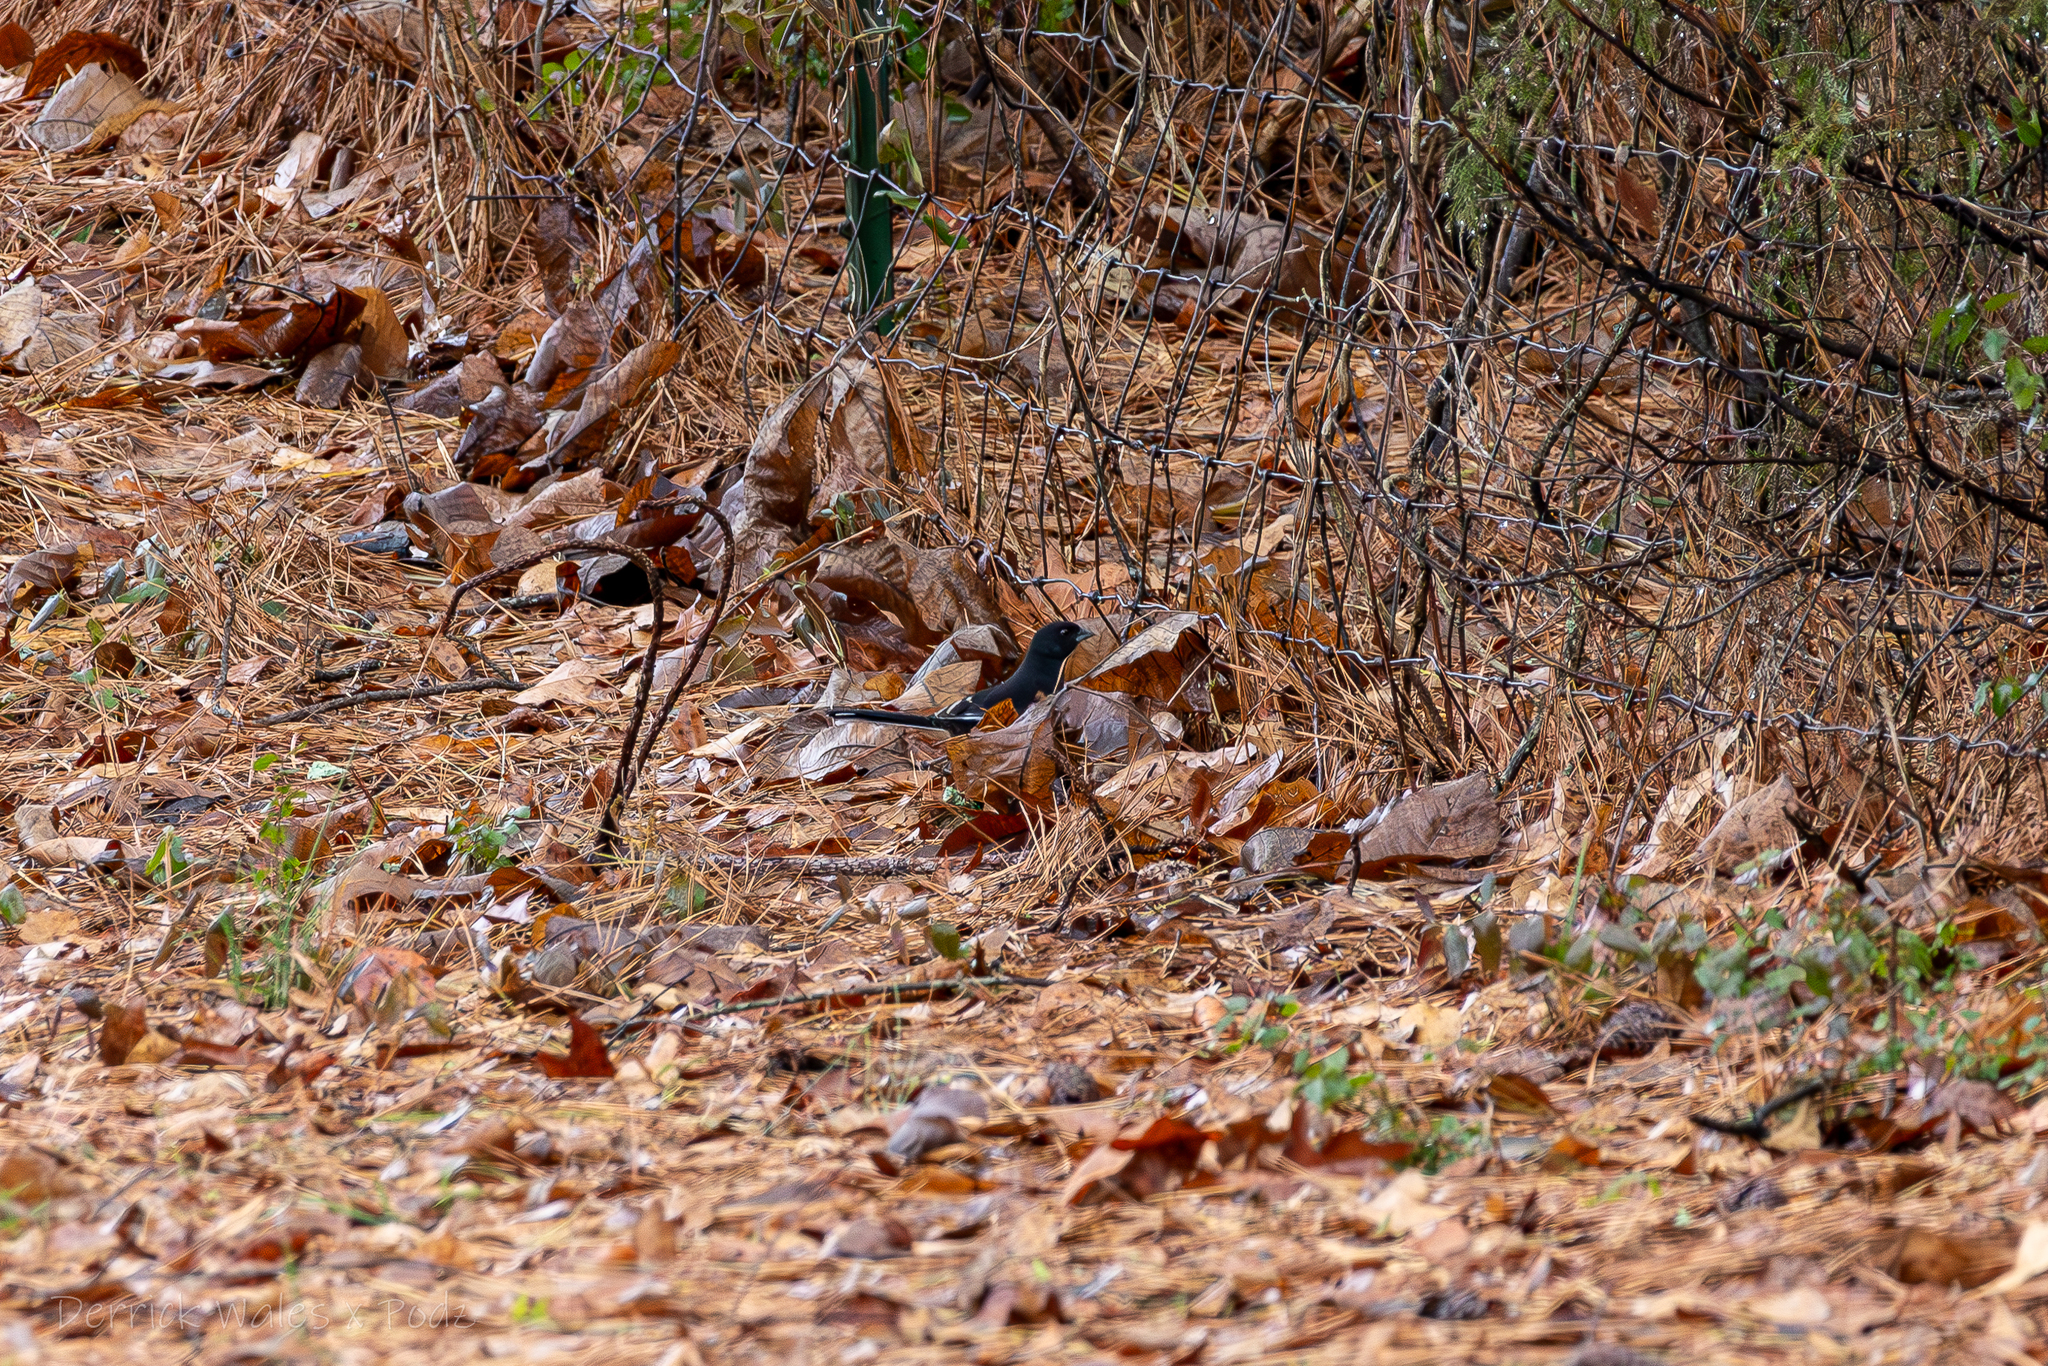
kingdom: Animalia
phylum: Chordata
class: Aves
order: Passeriformes
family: Passerellidae
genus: Pipilo
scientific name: Pipilo erythrophthalmus
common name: Eastern towhee
